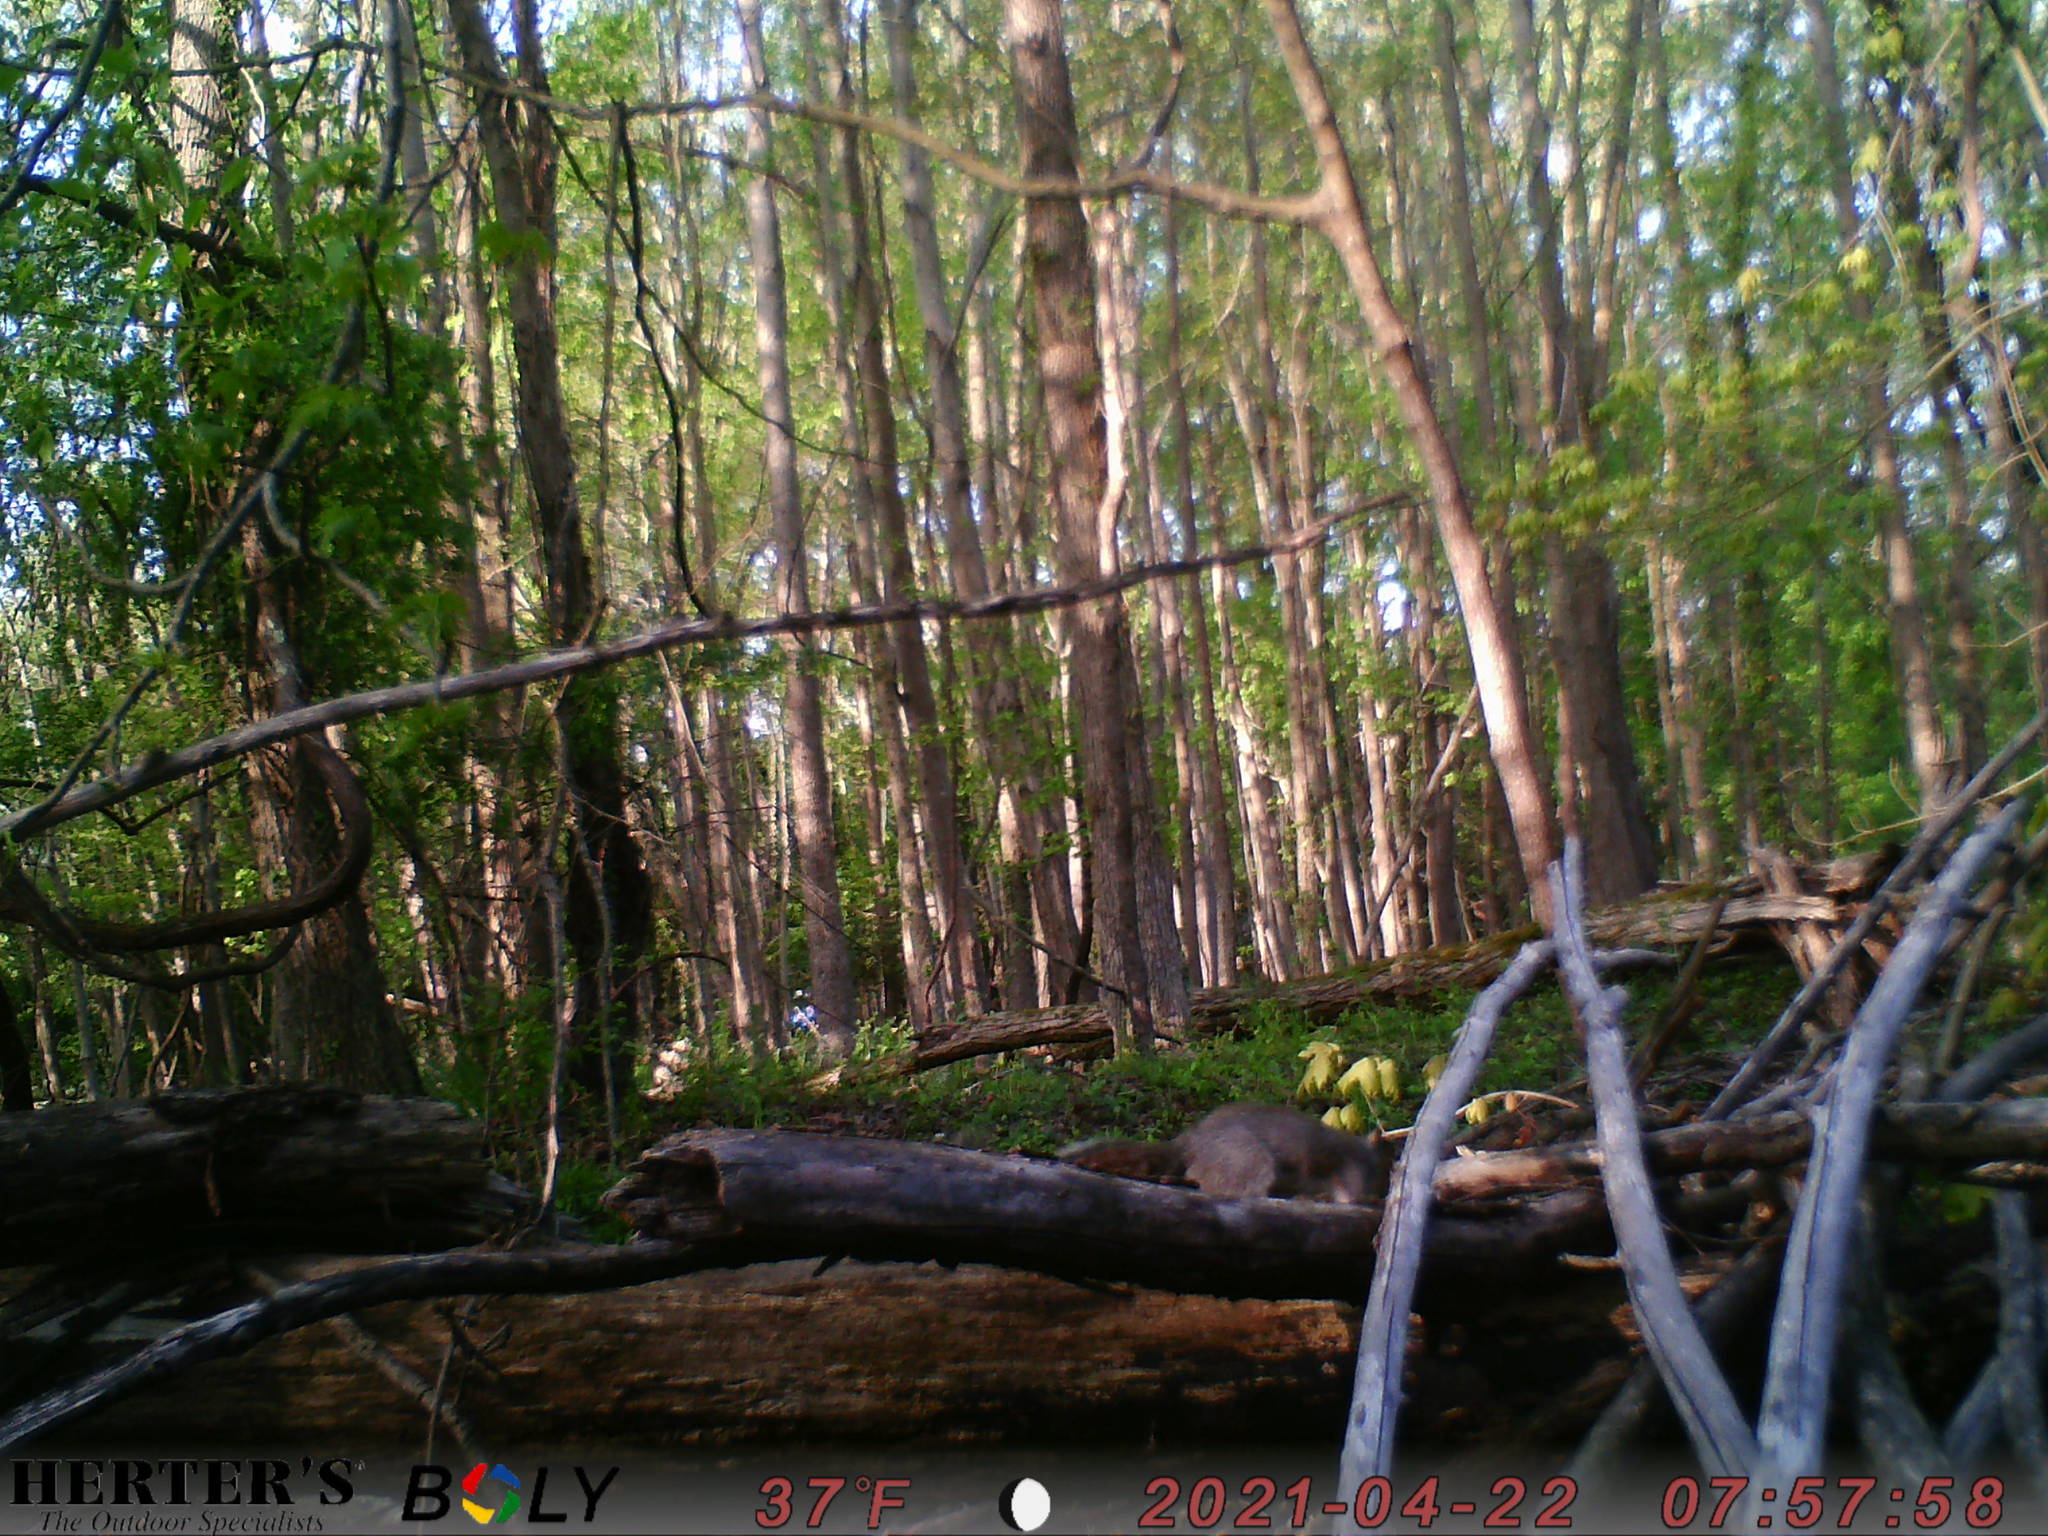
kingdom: Animalia
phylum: Chordata
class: Mammalia
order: Rodentia
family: Sciuridae
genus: Sciurus
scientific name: Sciurus carolinensis
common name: Eastern gray squirrel
